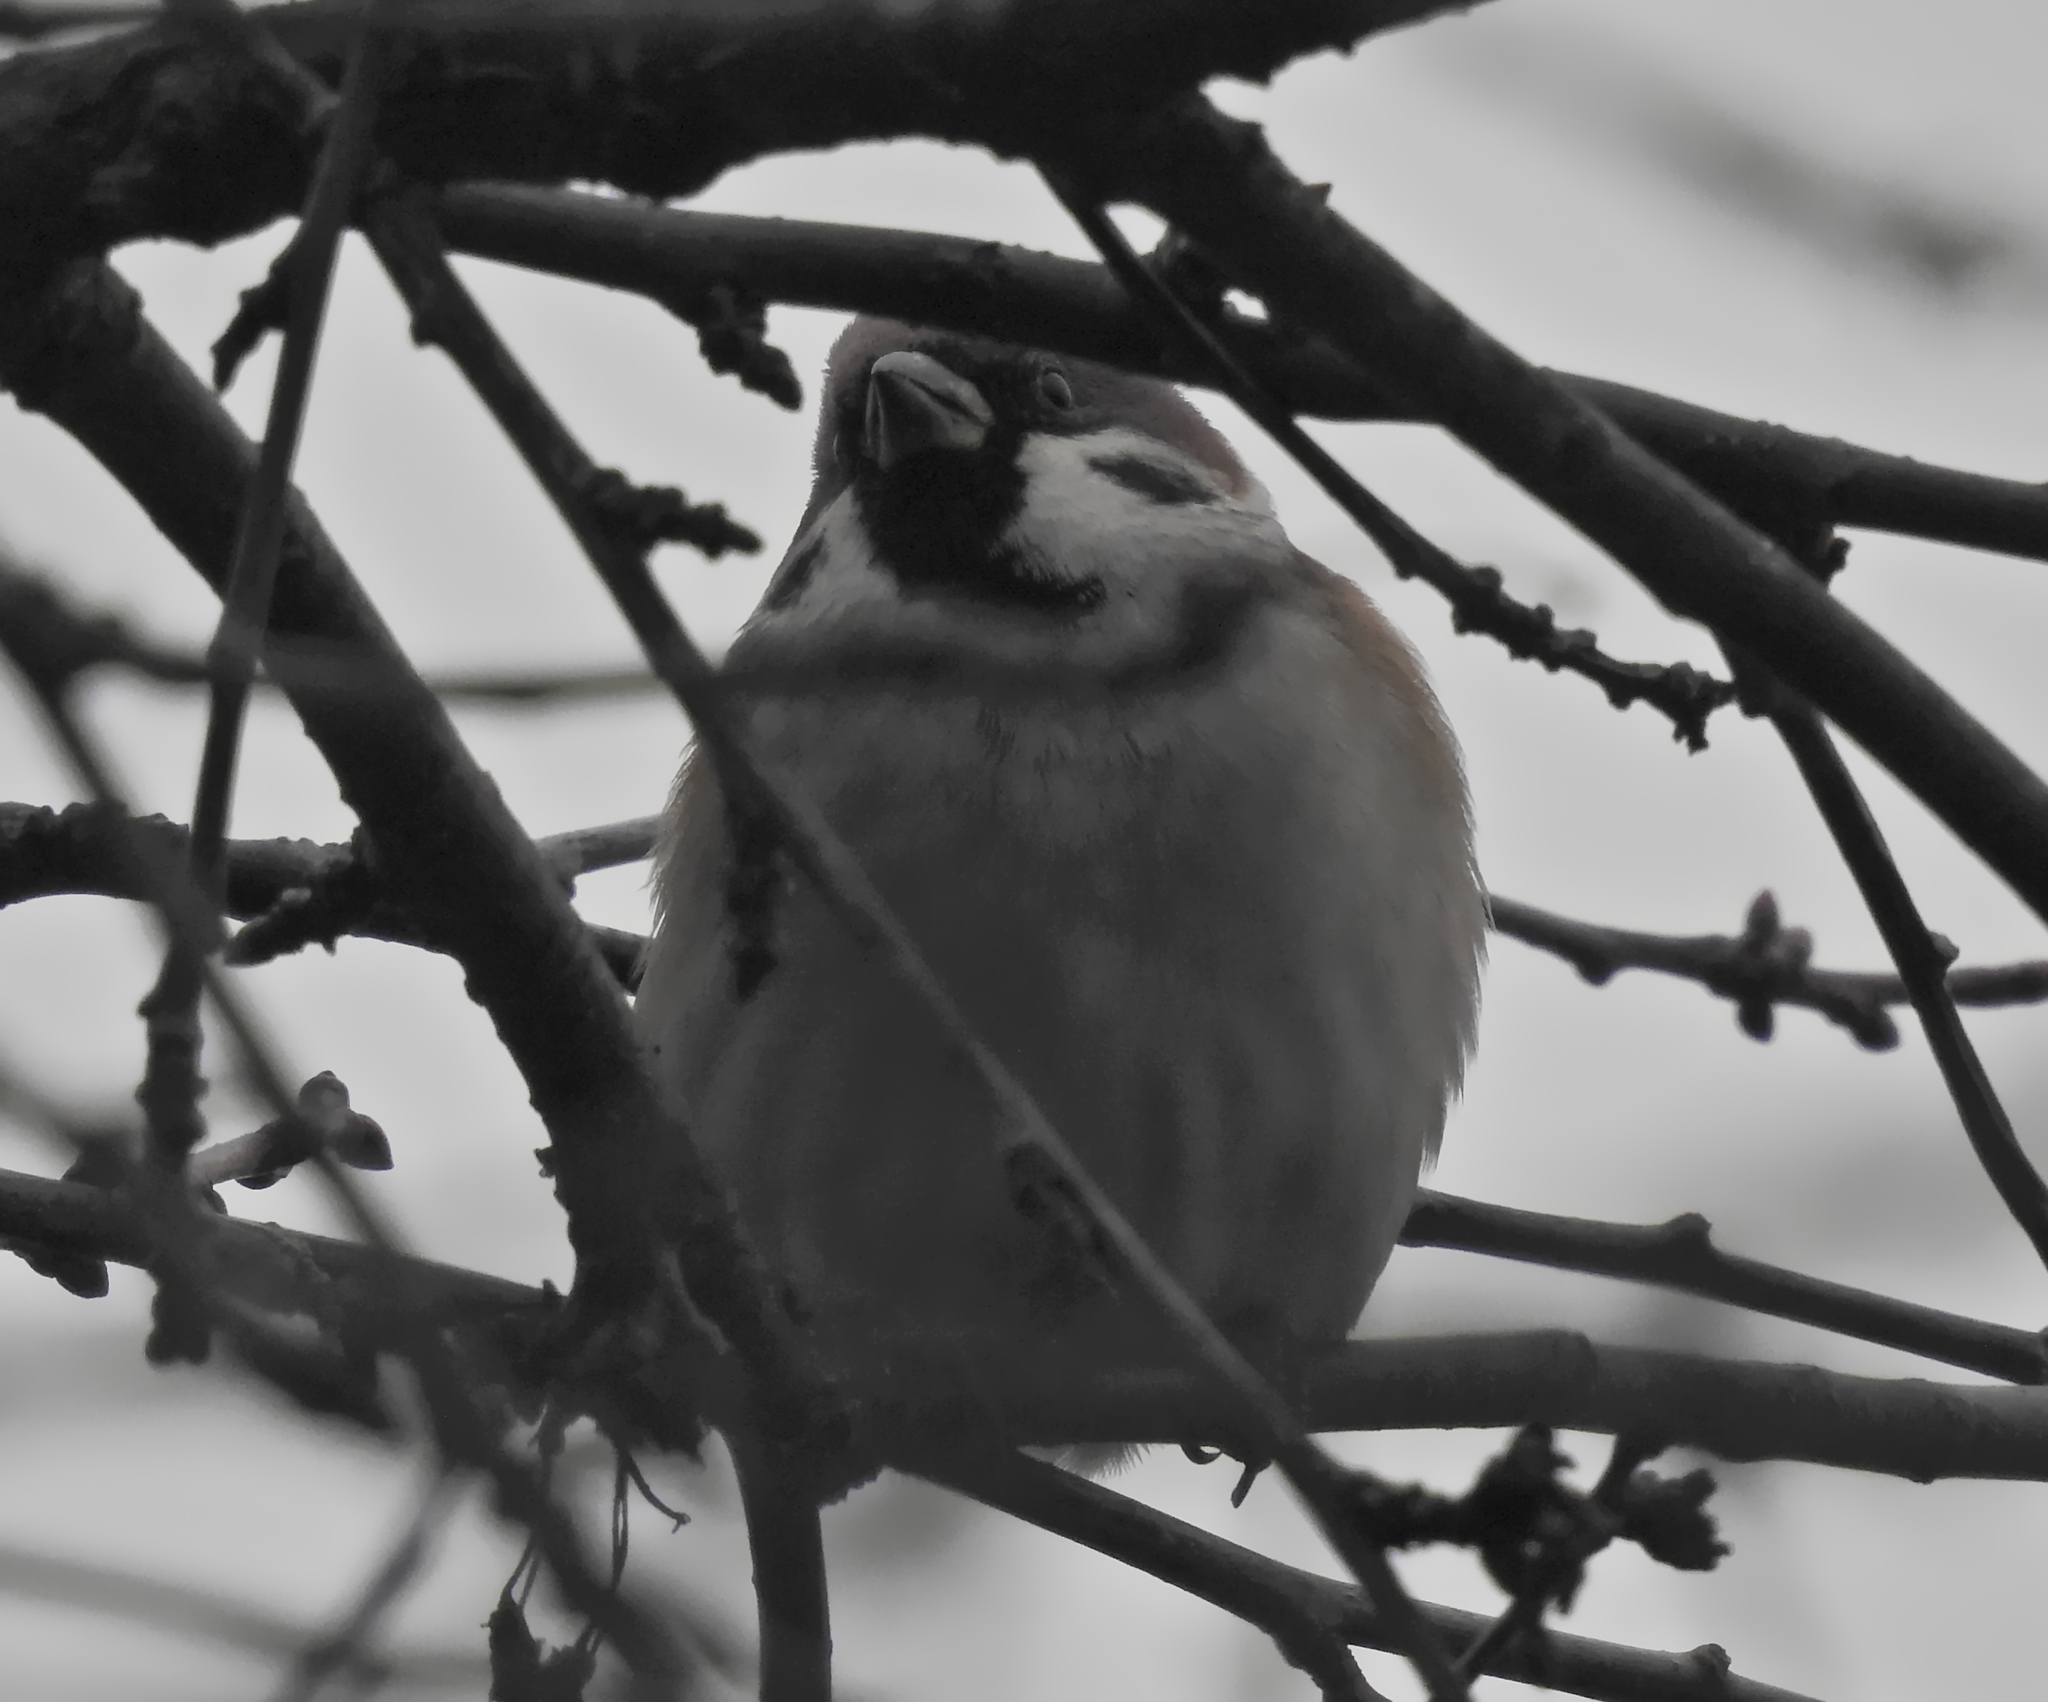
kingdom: Animalia
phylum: Chordata
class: Aves
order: Passeriformes
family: Passeridae
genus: Passer
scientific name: Passer montanus
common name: Eurasian tree sparrow
